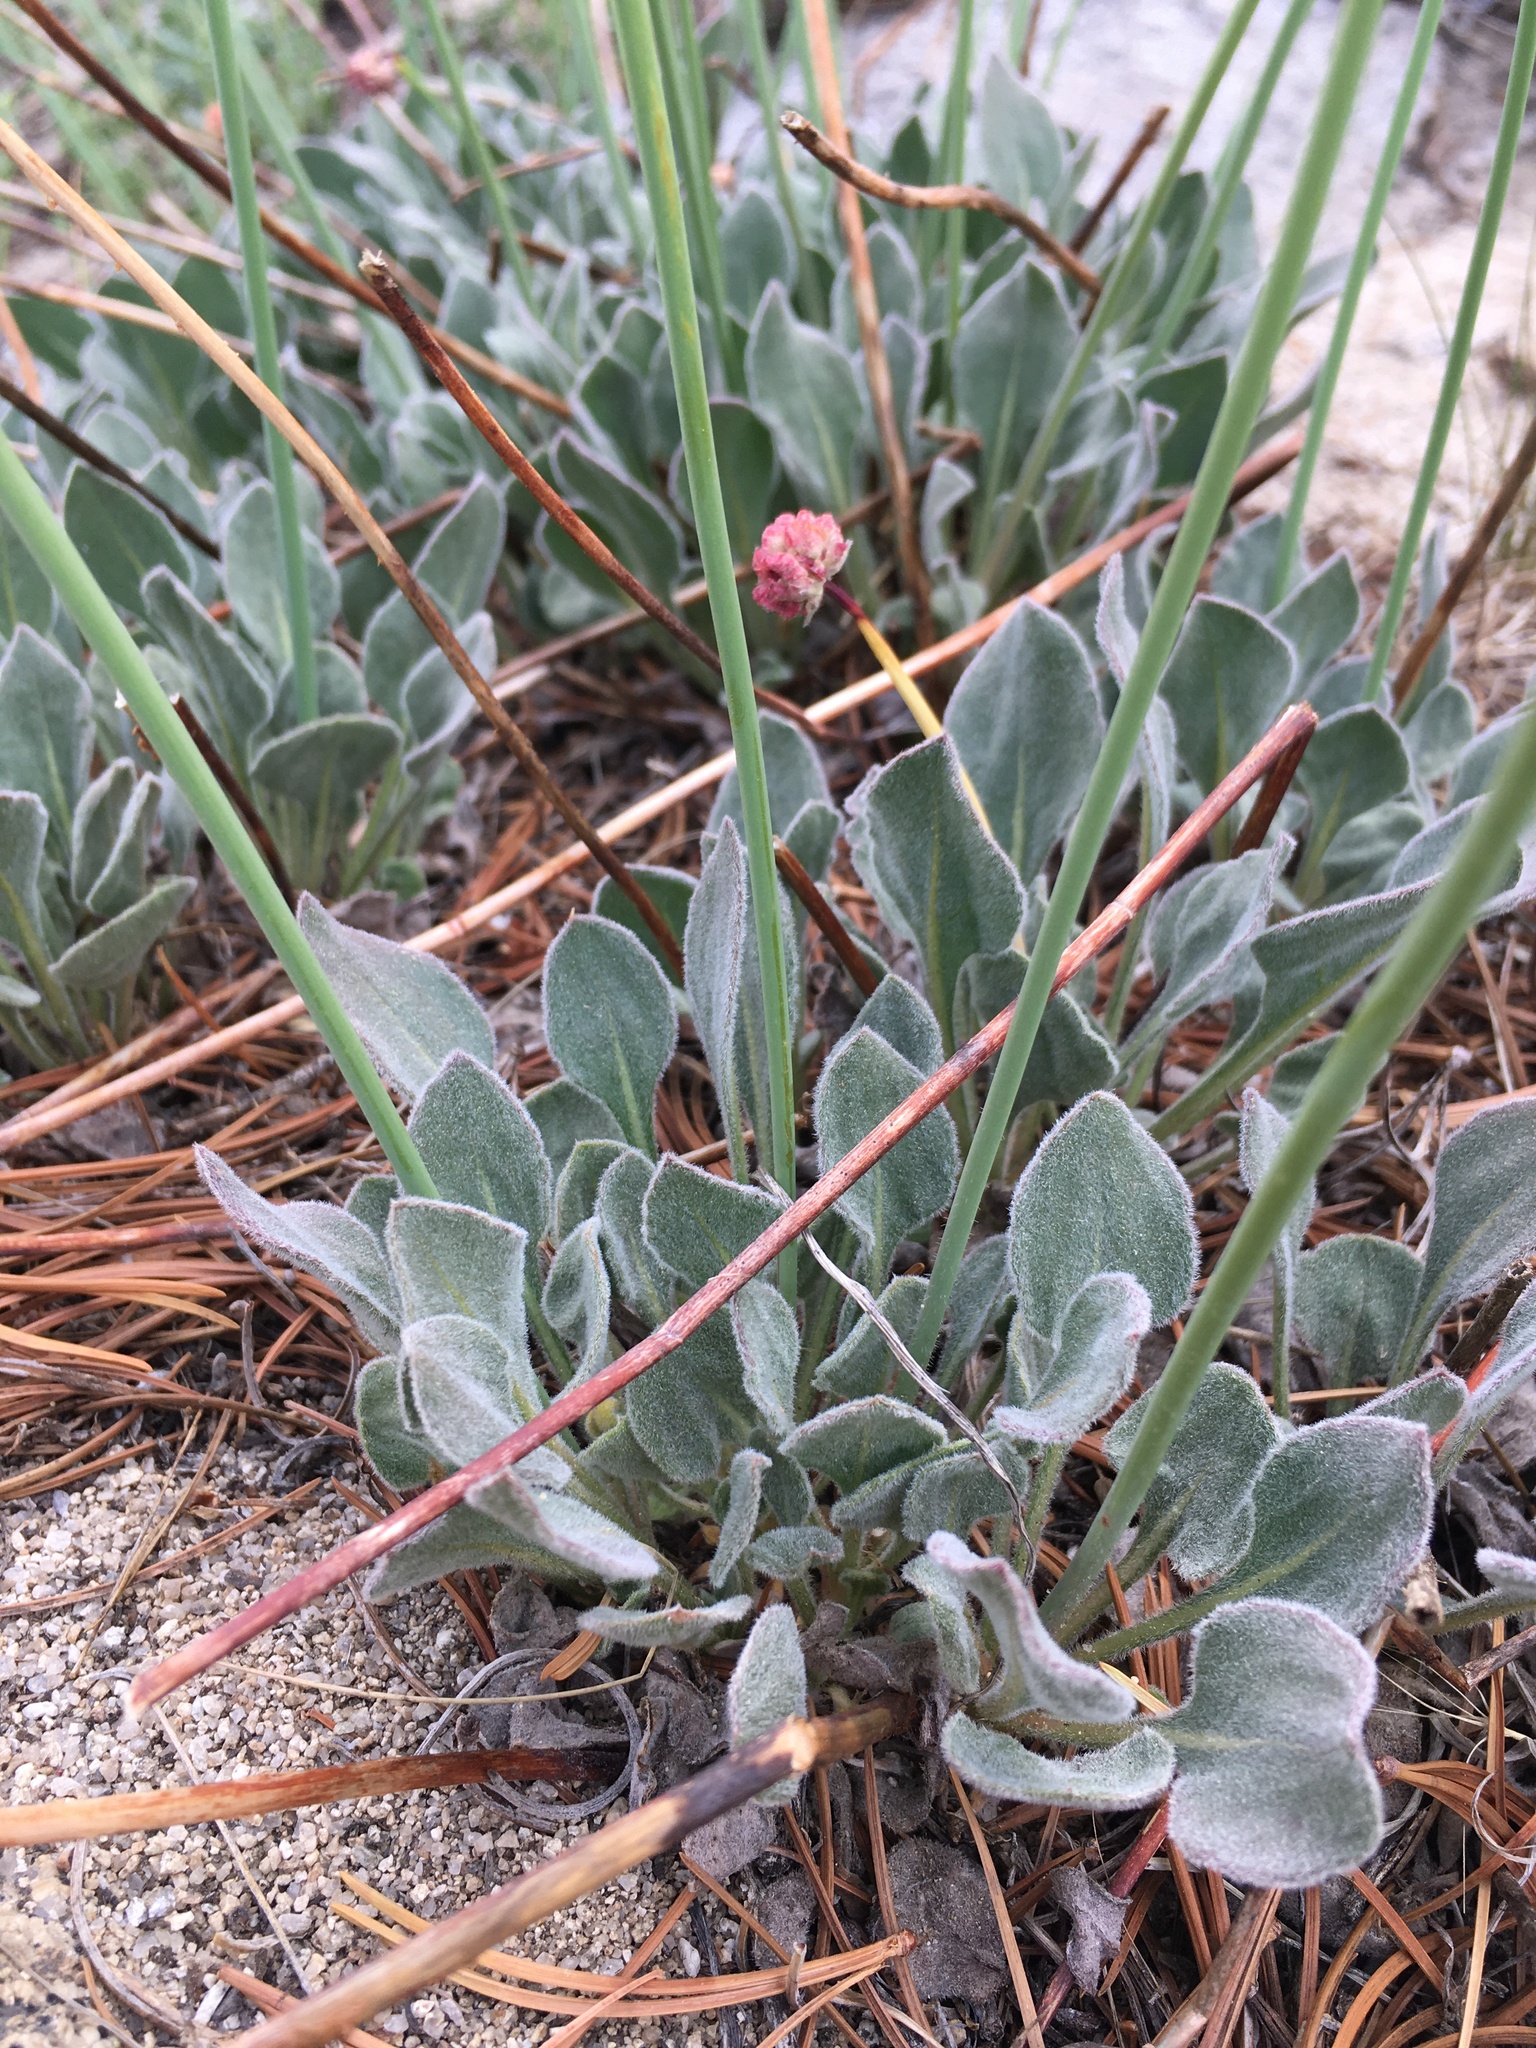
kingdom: Plantae
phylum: Tracheophyta
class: Magnoliopsida
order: Caryophyllales
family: Polygonaceae
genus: Eriogonum
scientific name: Eriogonum latens
